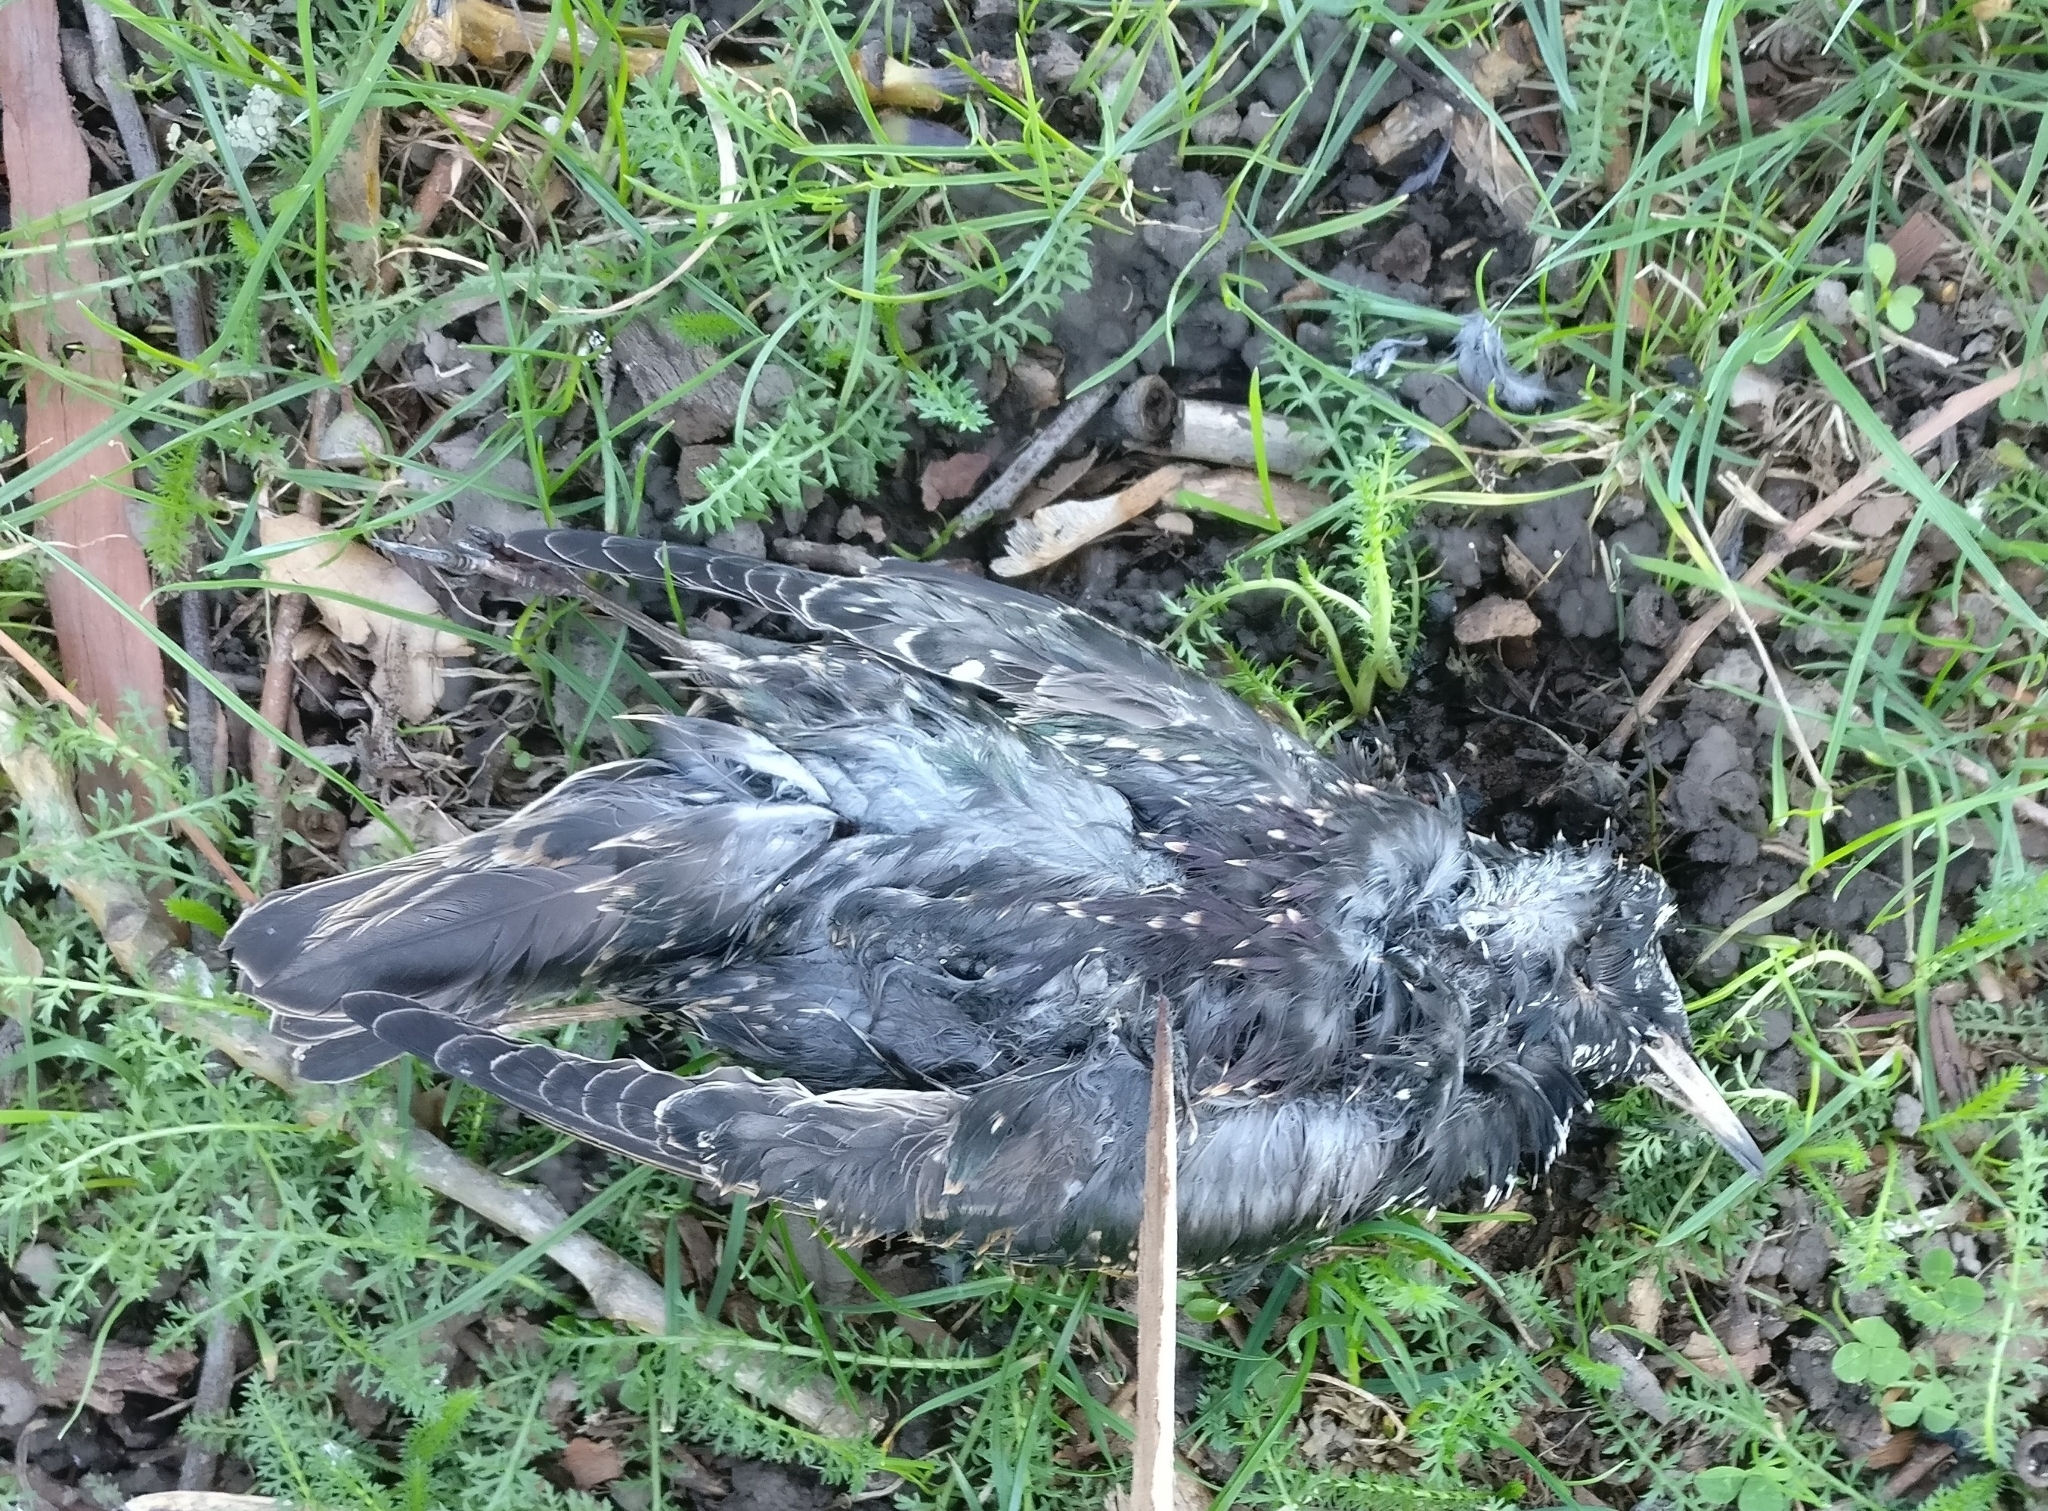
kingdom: Animalia
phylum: Chordata
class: Aves
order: Passeriformes
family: Sturnidae
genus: Sturnus
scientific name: Sturnus vulgaris
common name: Common starling
